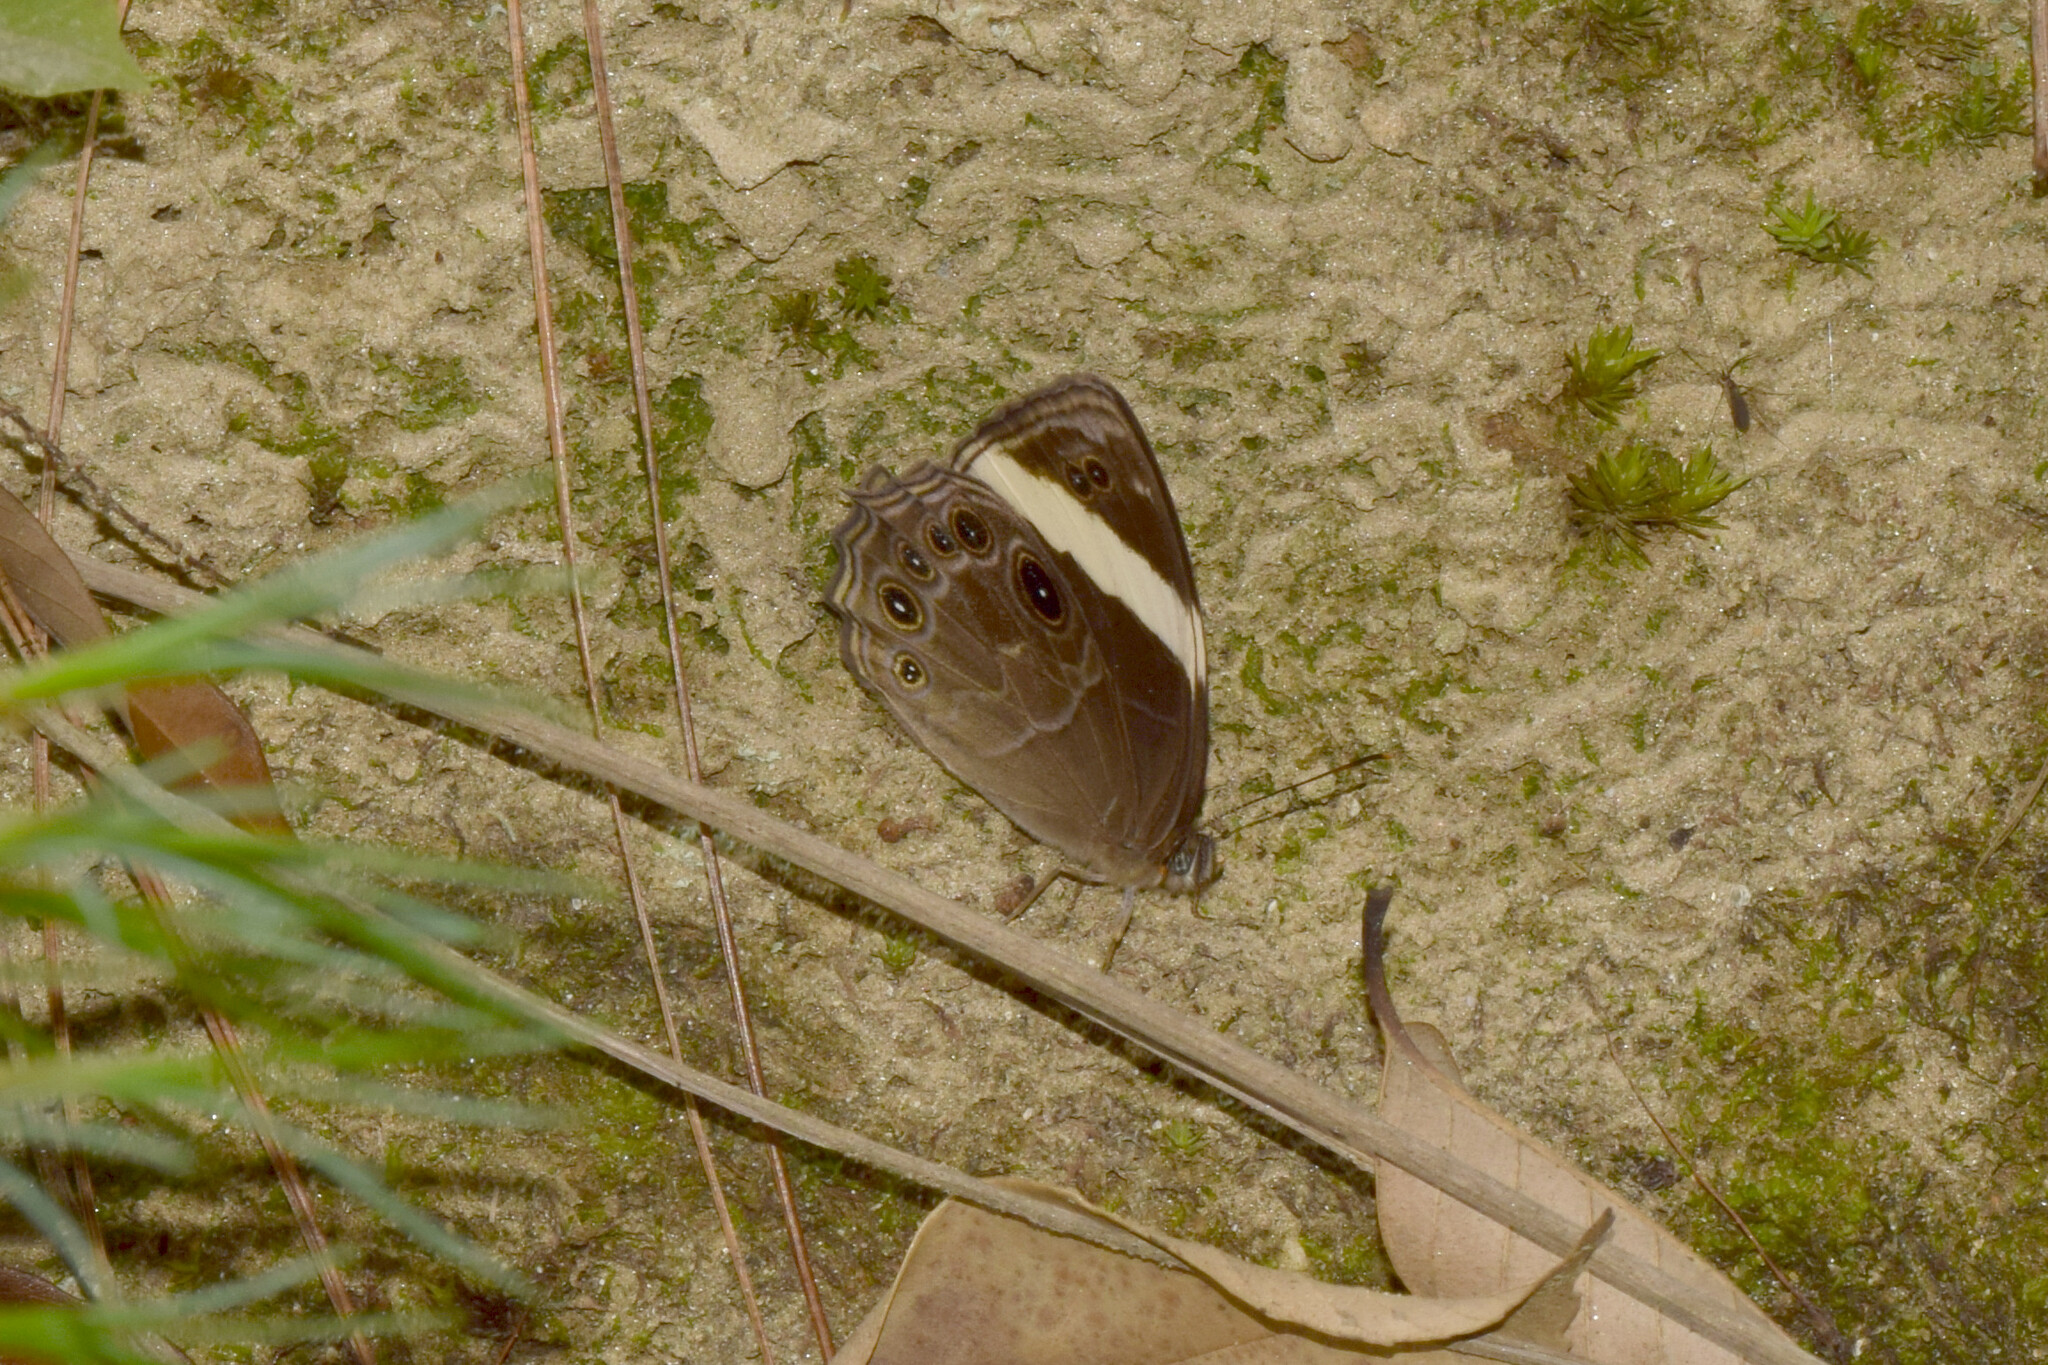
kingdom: Animalia
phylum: Arthropoda
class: Insecta
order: Lepidoptera
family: Nymphalidae
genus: Lethe
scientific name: Lethe verma
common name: Straight-banded treebrown
